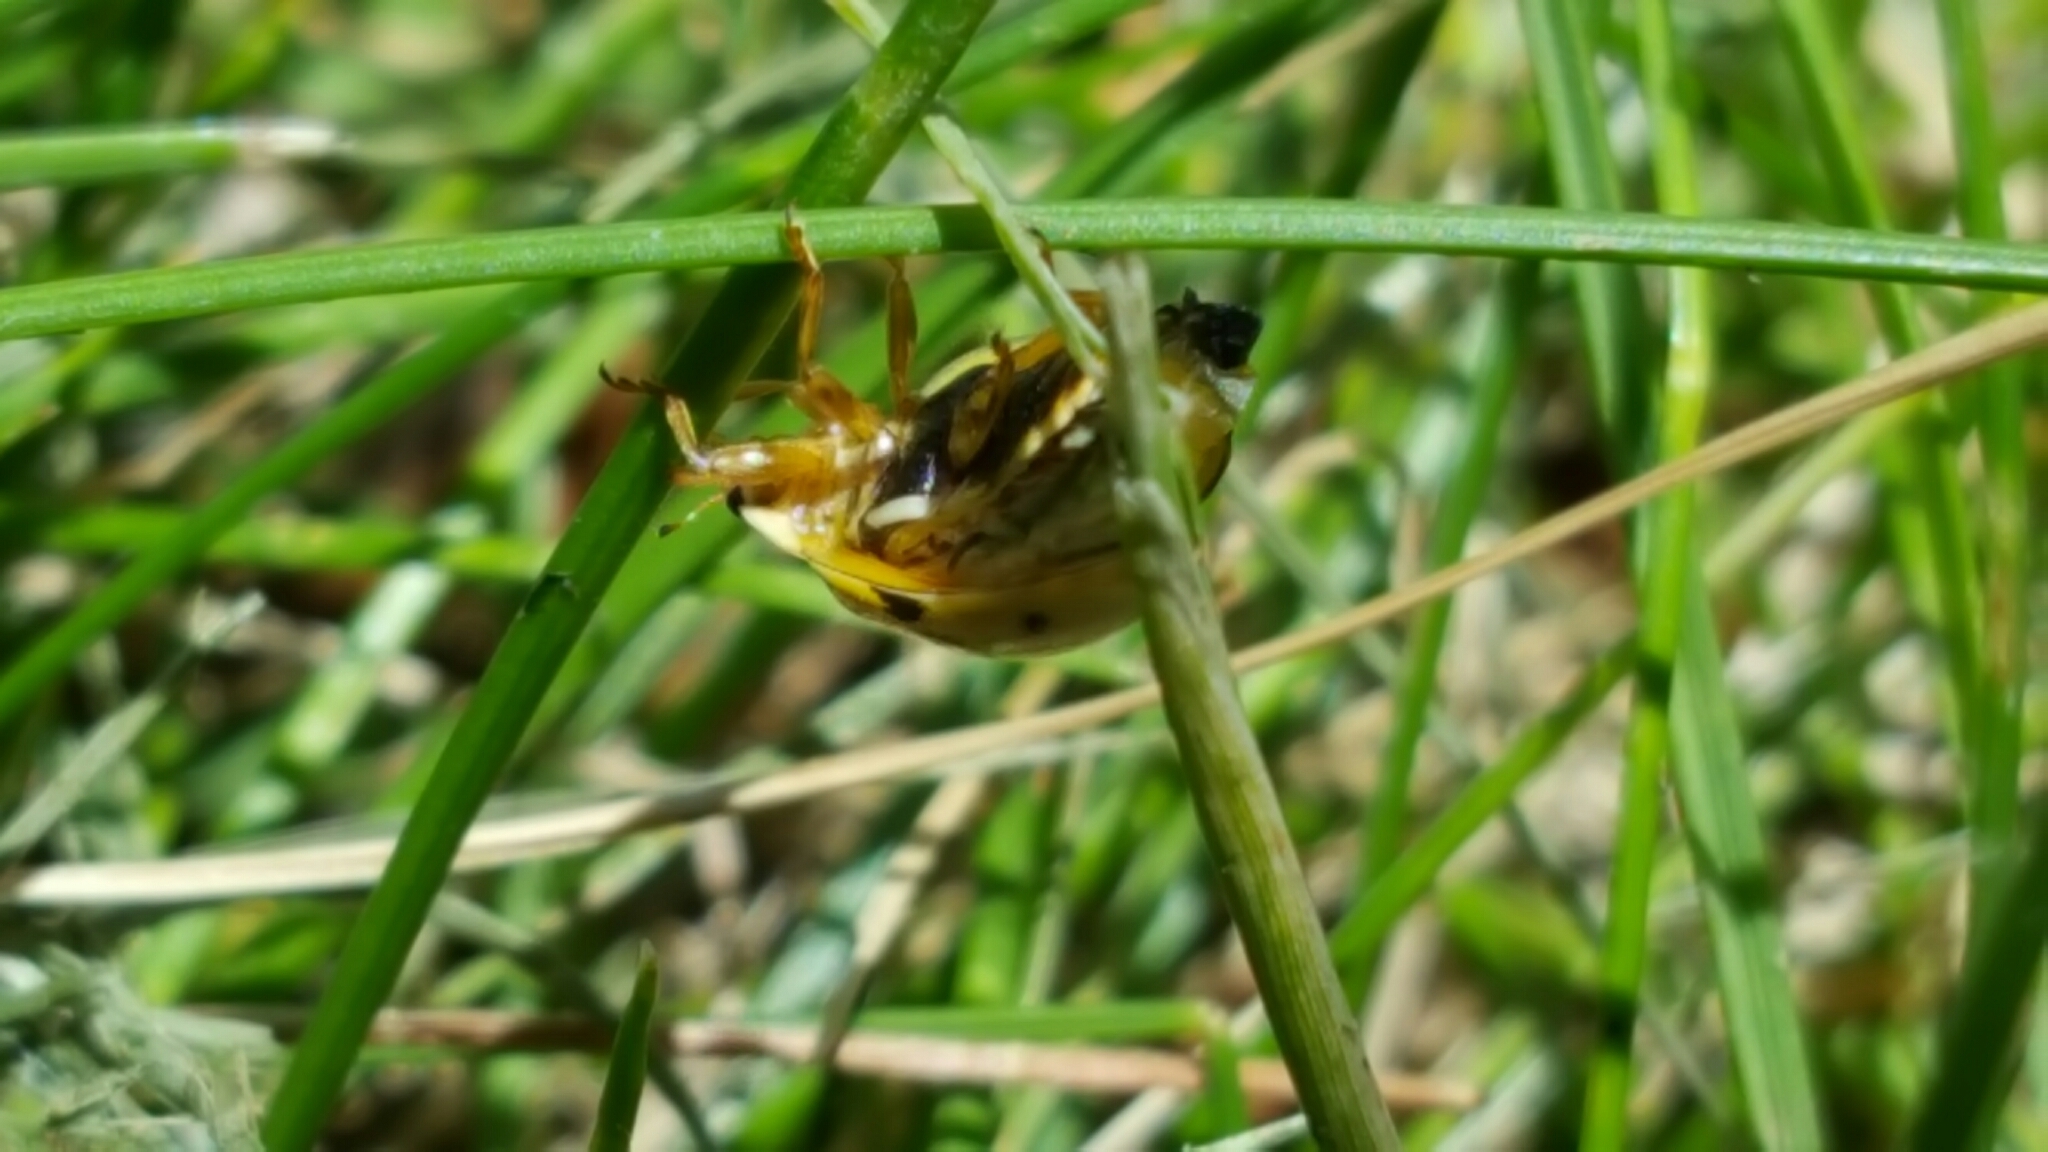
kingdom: Animalia
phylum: Arthropoda
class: Insecta
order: Coleoptera
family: Coccinellidae
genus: Olla
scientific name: Olla v-nigrum
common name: Ashy gray lady beetle
